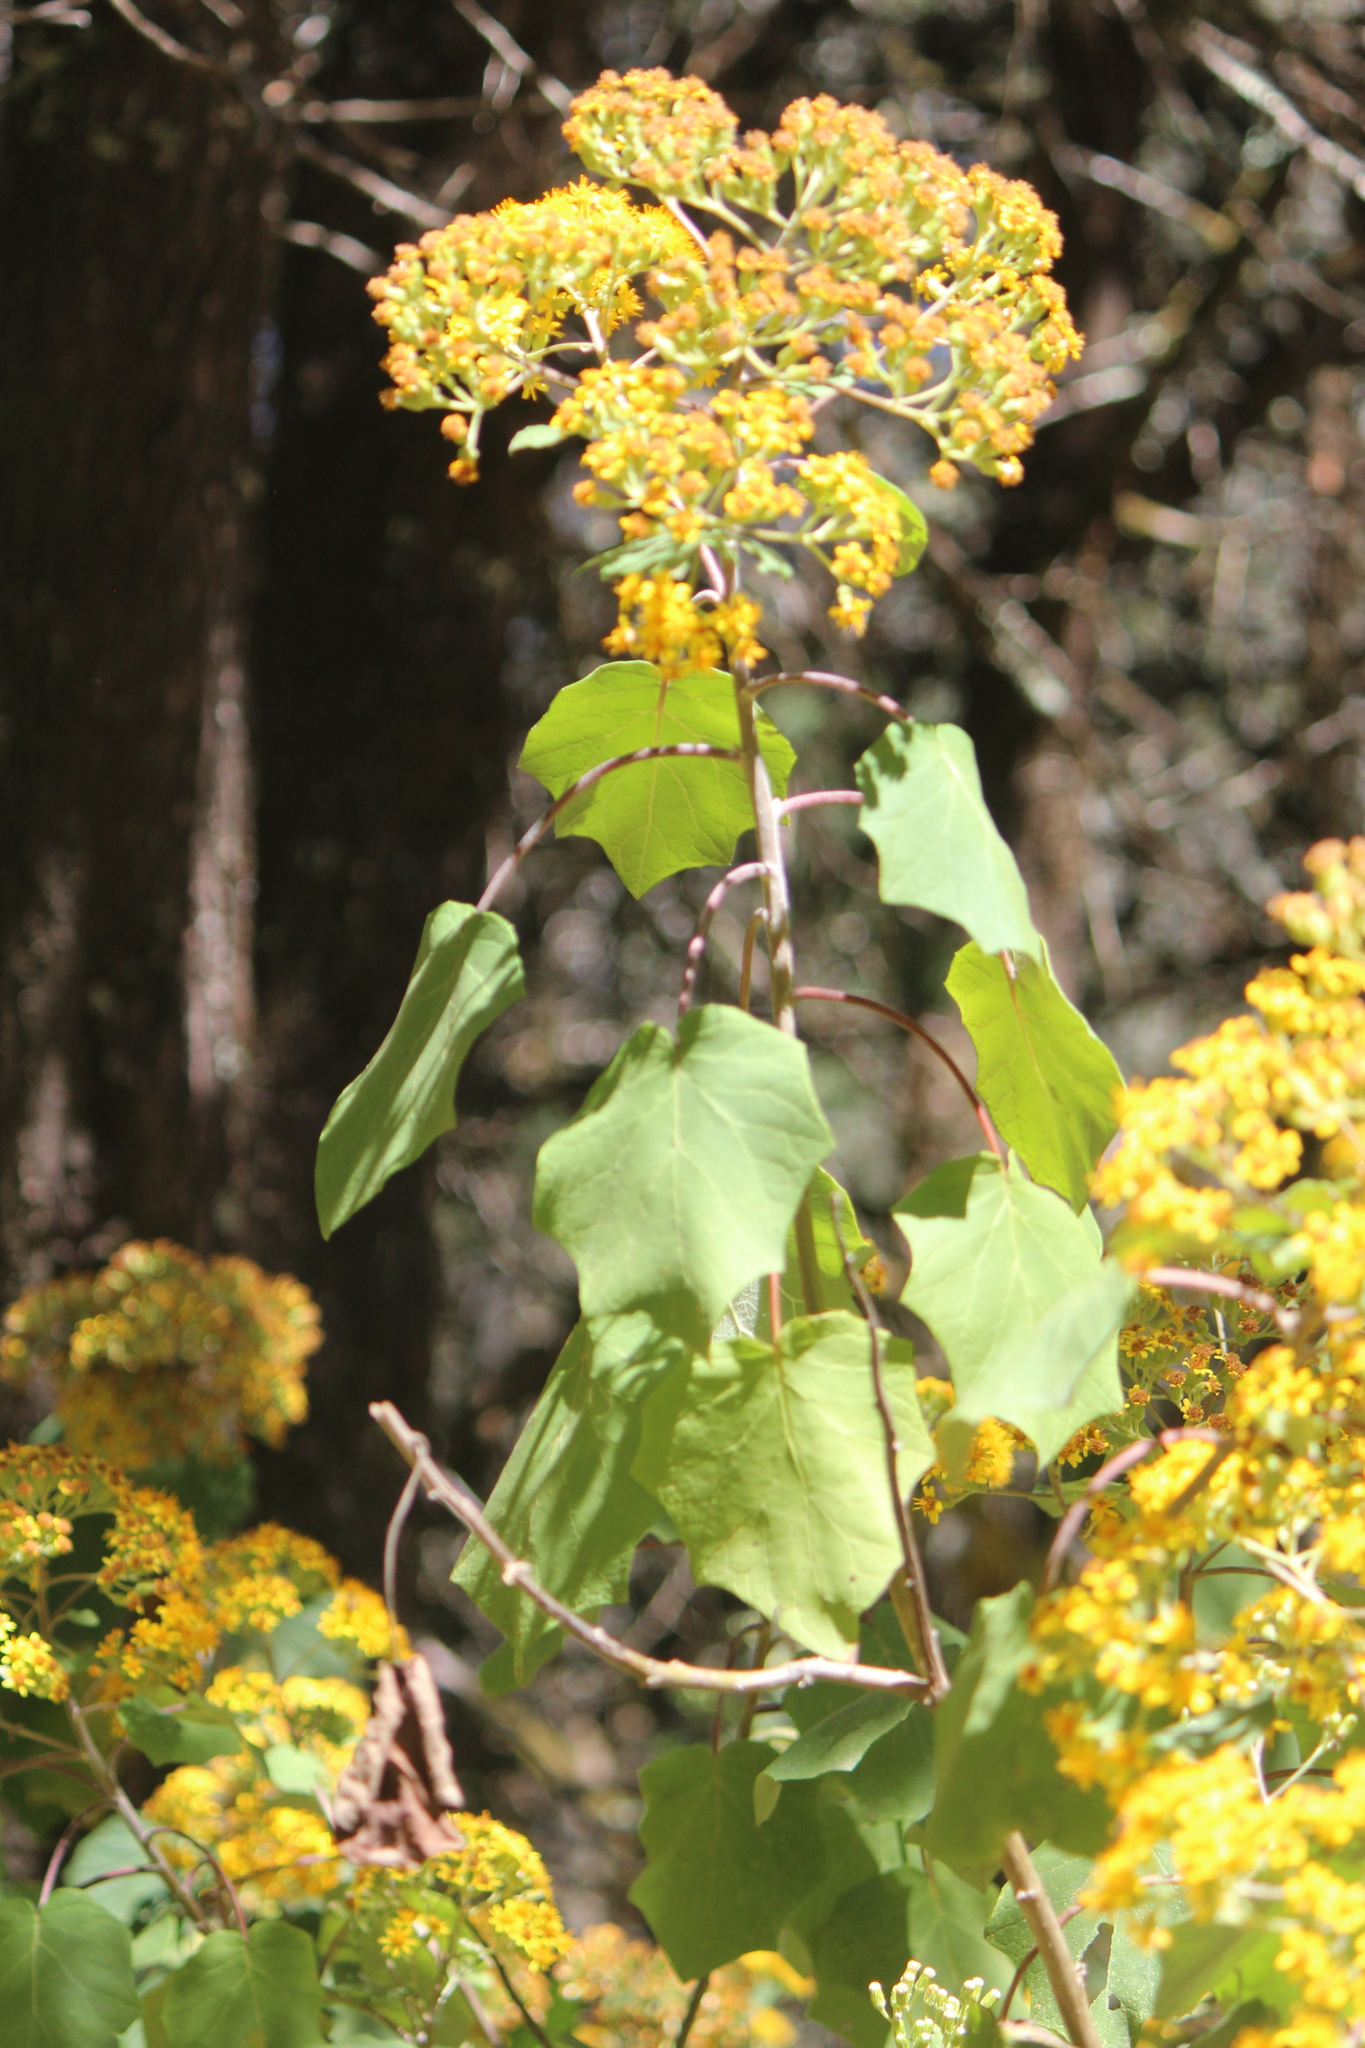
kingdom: Plantae
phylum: Tracheophyta
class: Magnoliopsida
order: Asterales
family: Asteraceae
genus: Roldana
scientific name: Roldana aschenborniana
